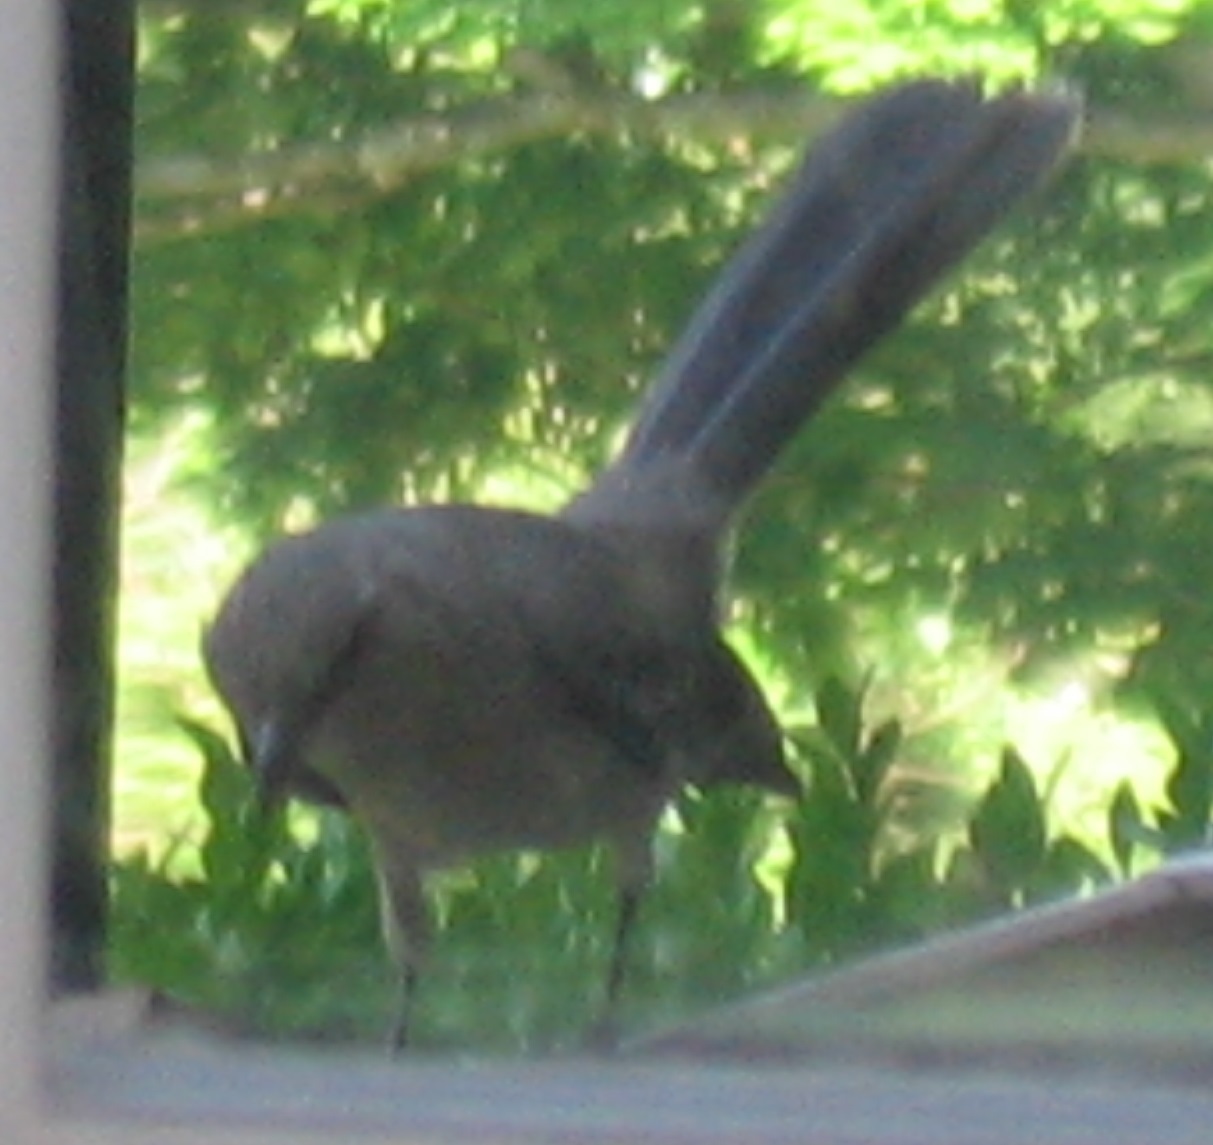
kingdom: Animalia
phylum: Chordata
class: Aves
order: Passeriformes
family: Mimidae
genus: Mimus
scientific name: Mimus polyglottos
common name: Northern mockingbird
